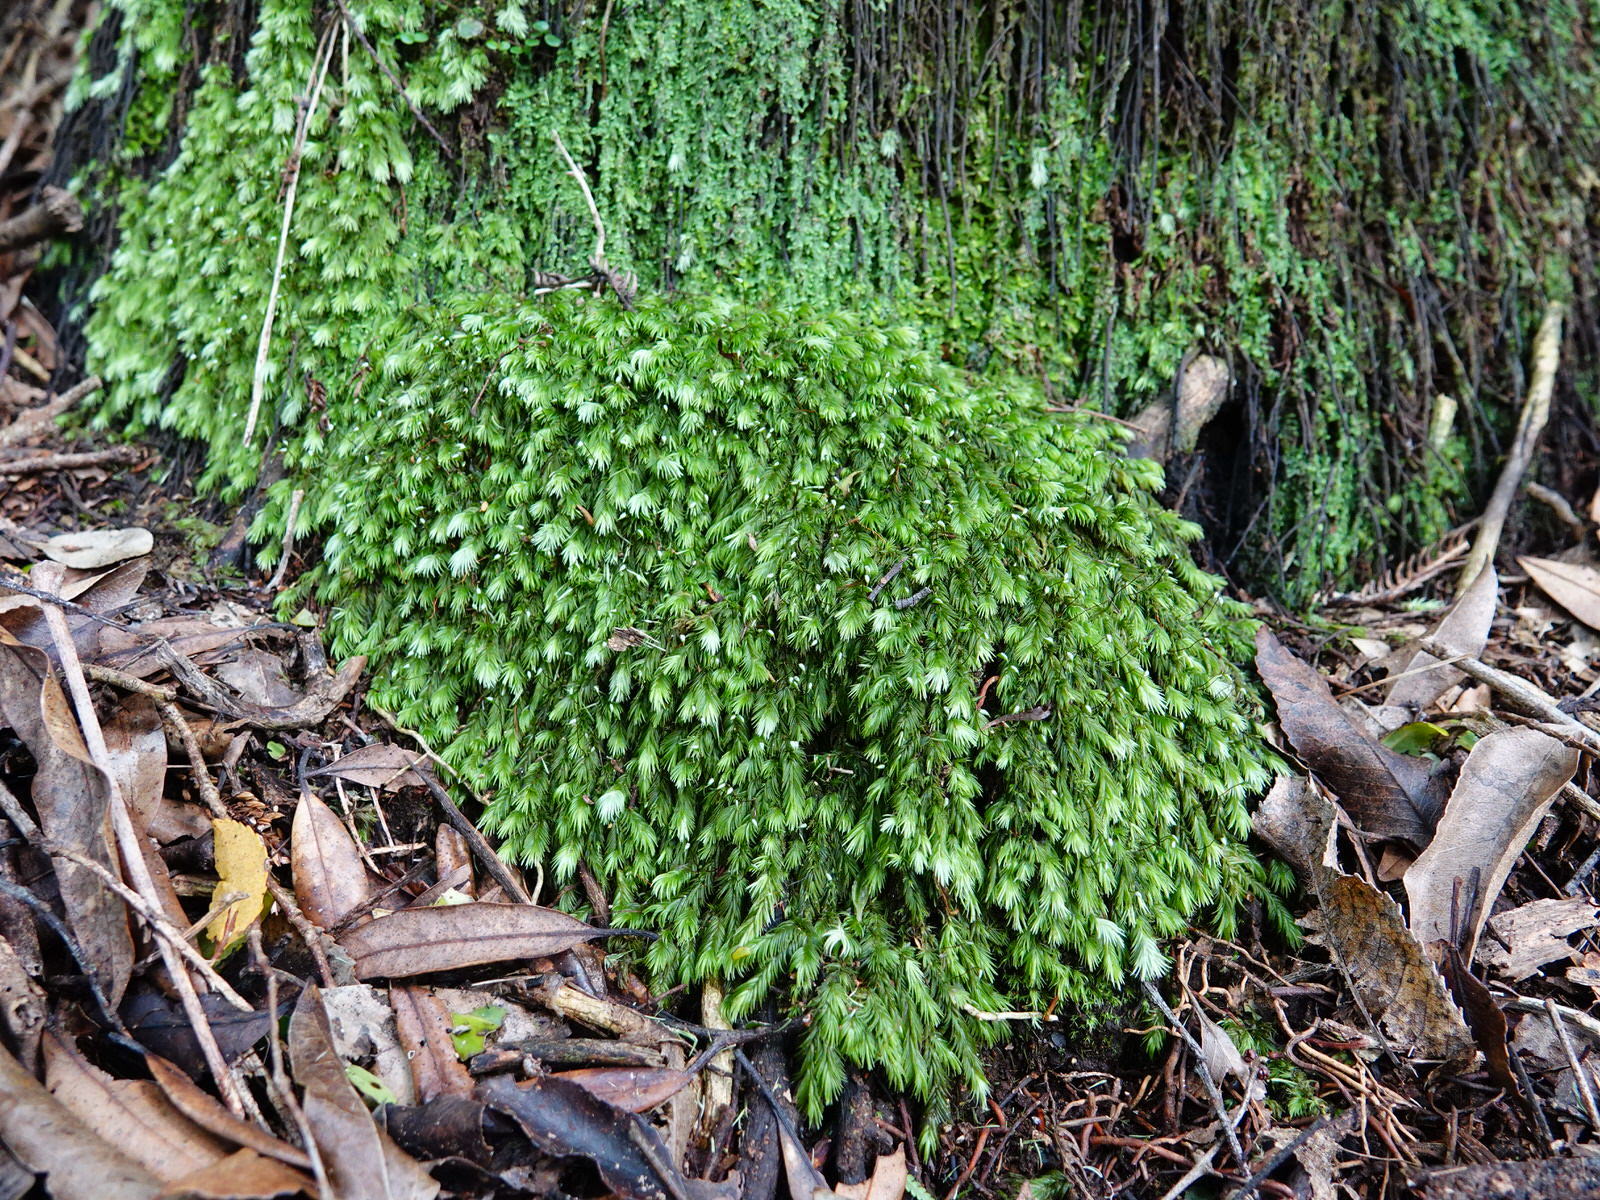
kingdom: Plantae
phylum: Bryophyta
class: Bryopsida
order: Dicranales
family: Leucobryaceae
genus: Leucobryum
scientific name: Leucobryum javense
